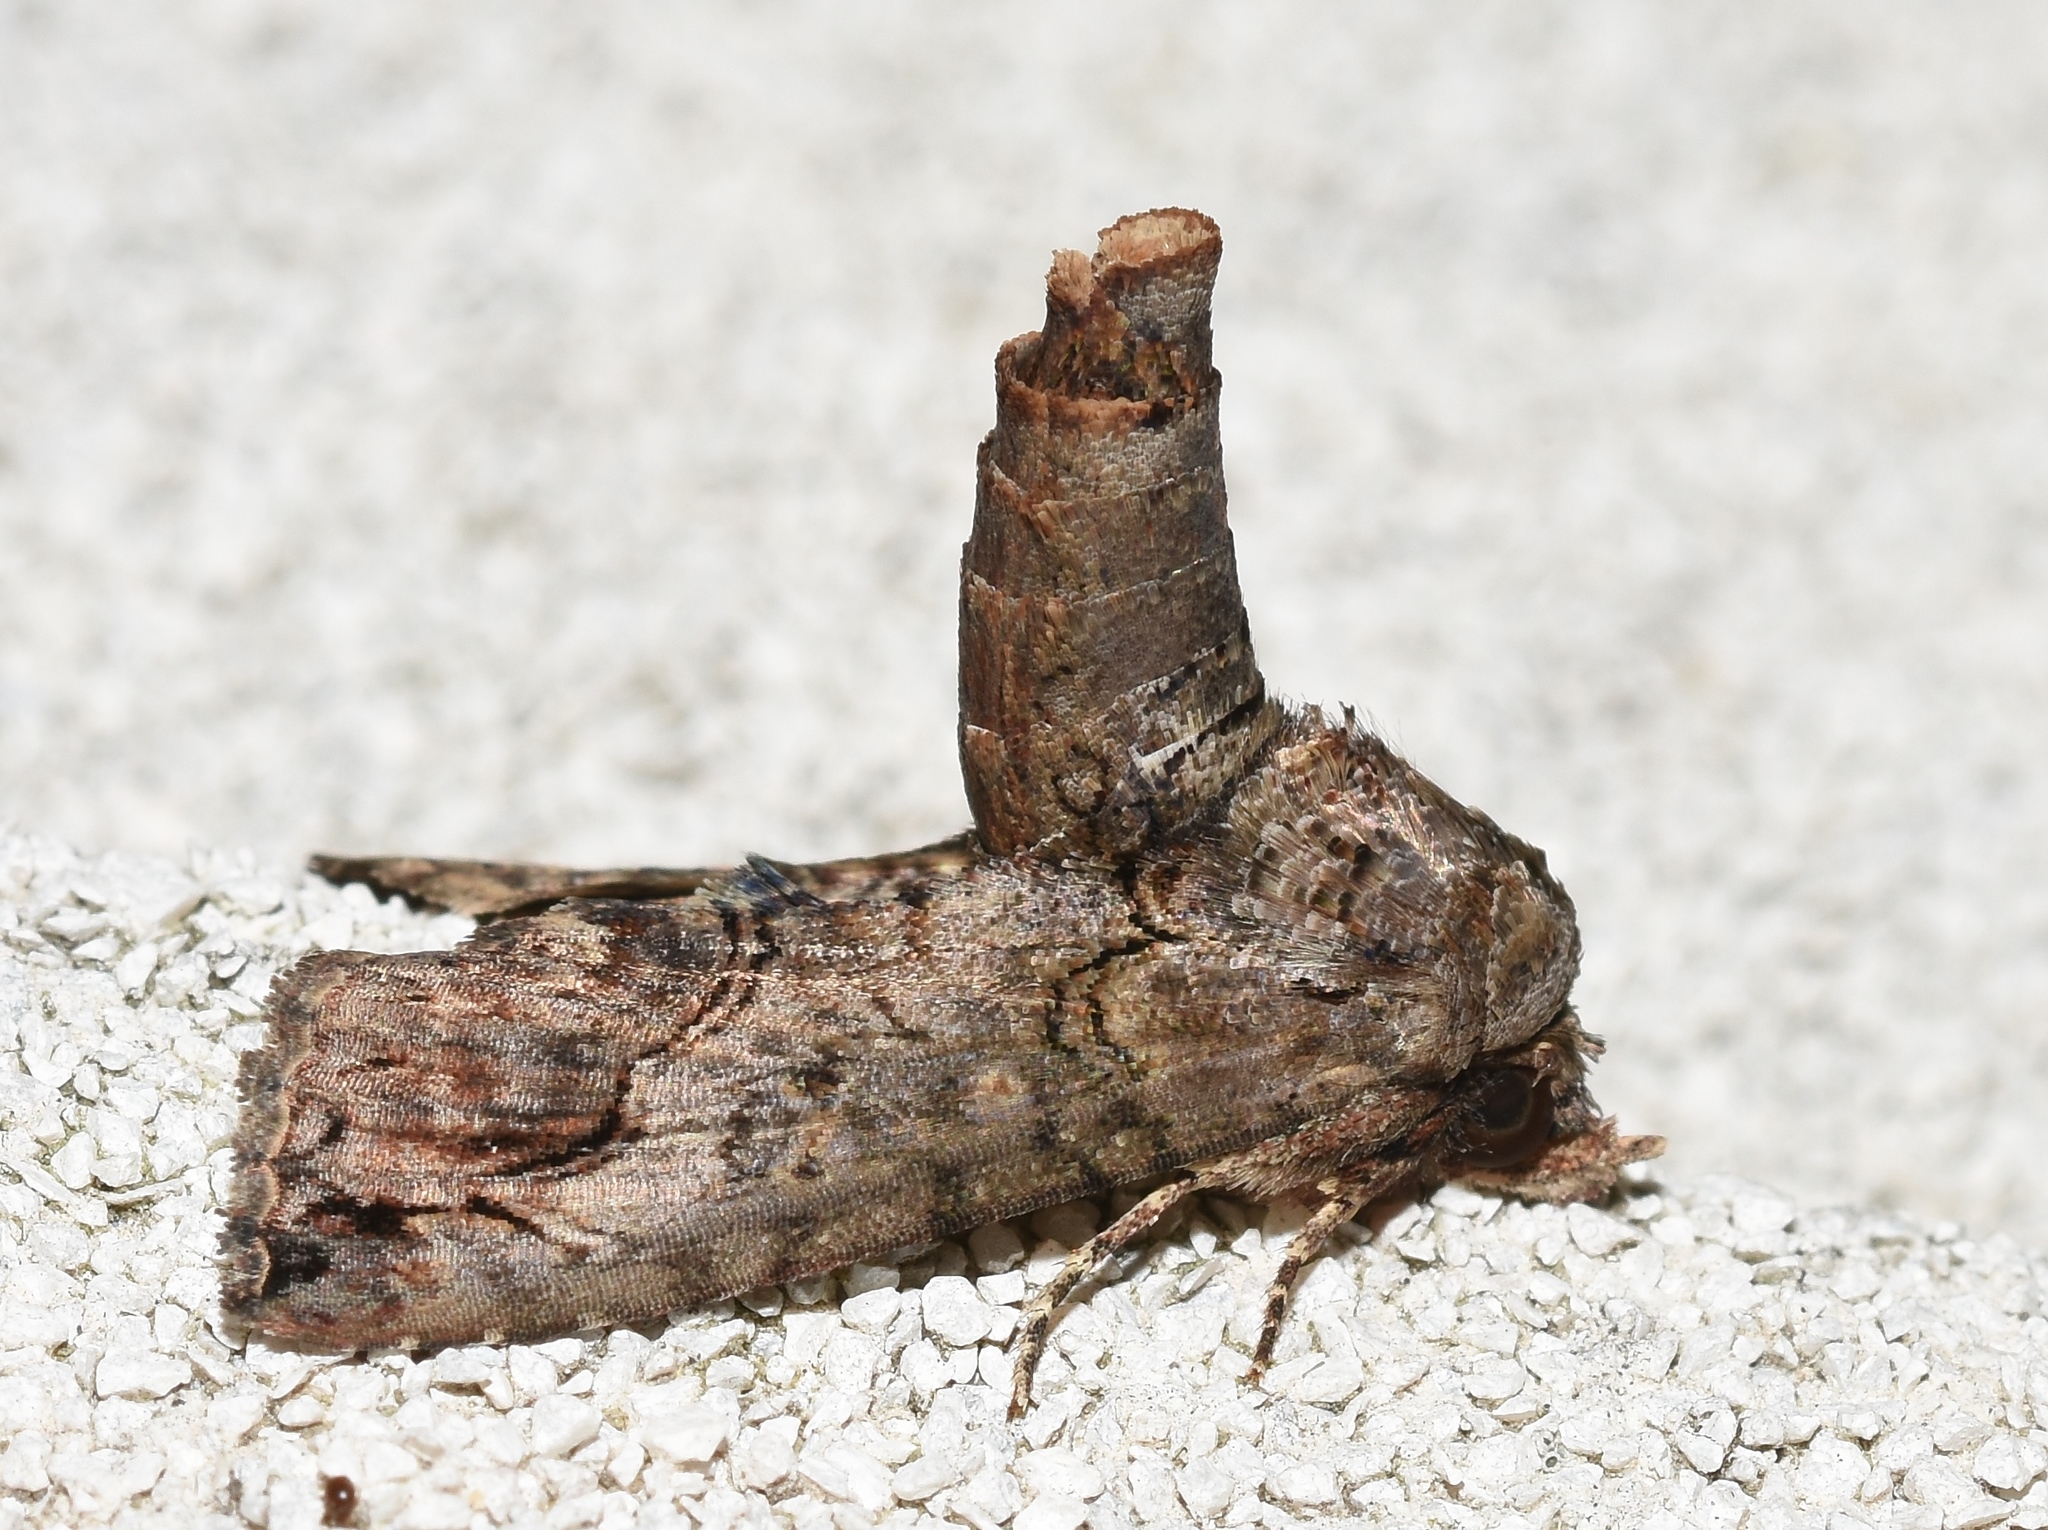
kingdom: Animalia
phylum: Arthropoda
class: Insecta
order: Lepidoptera
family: Euteliidae
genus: Paectes
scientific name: Paectes abrostoloides
